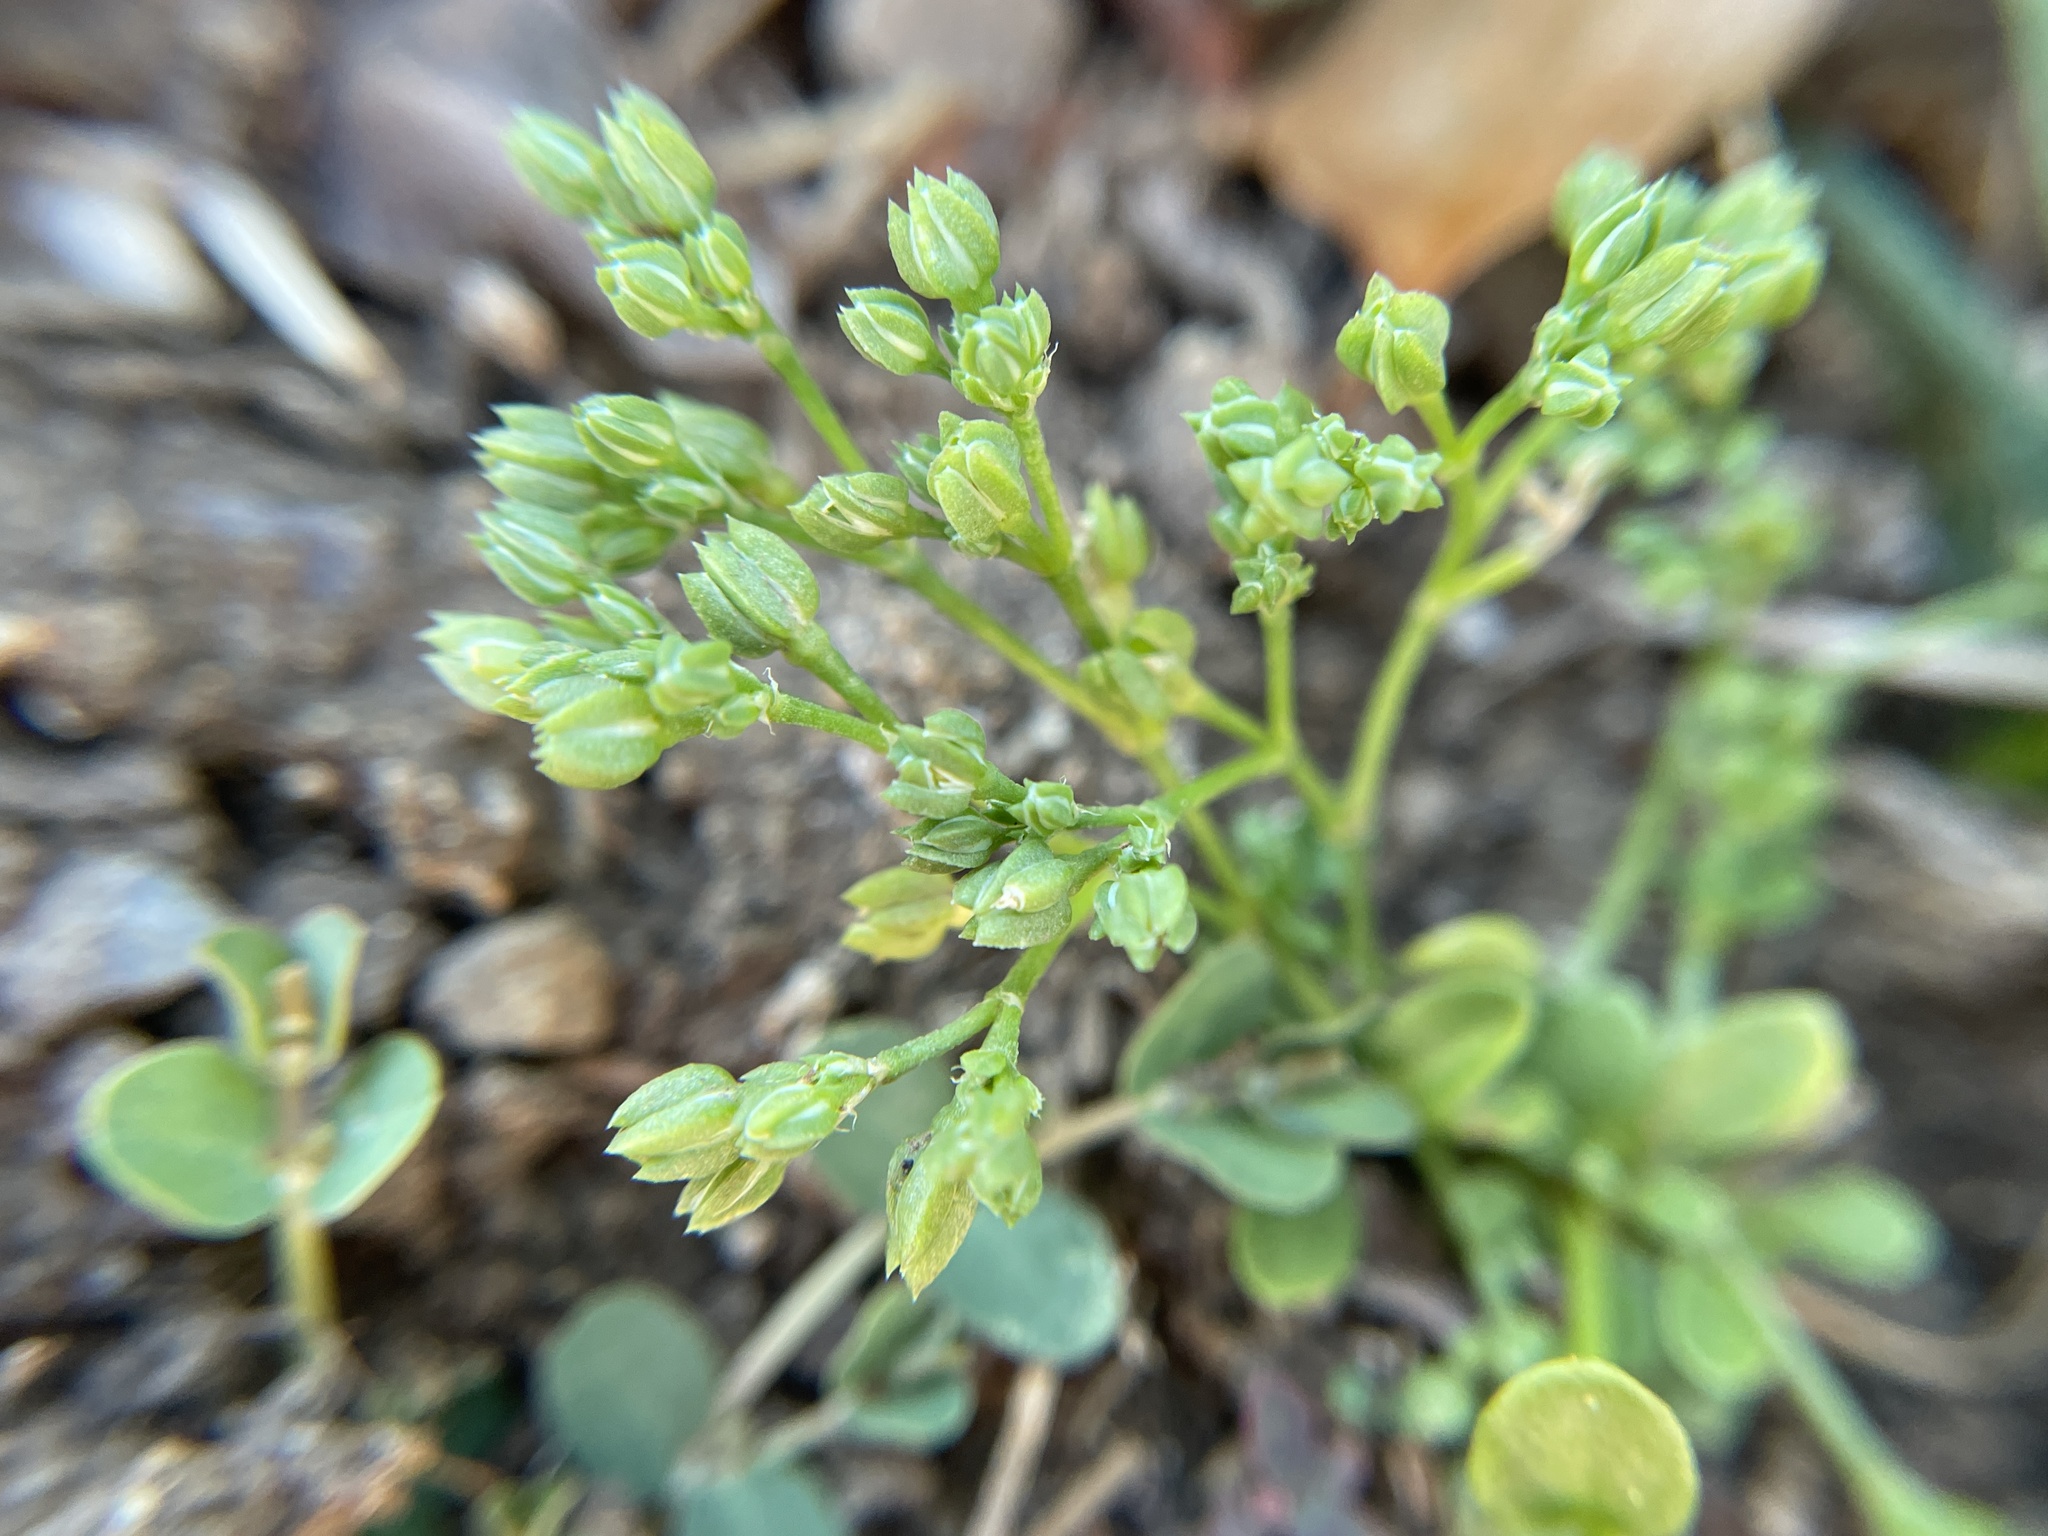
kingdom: Plantae
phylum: Tracheophyta
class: Magnoliopsida
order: Caryophyllales
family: Caryophyllaceae
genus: Polycarpon
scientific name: Polycarpon tetraphyllum
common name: Four-leaved all-seed
